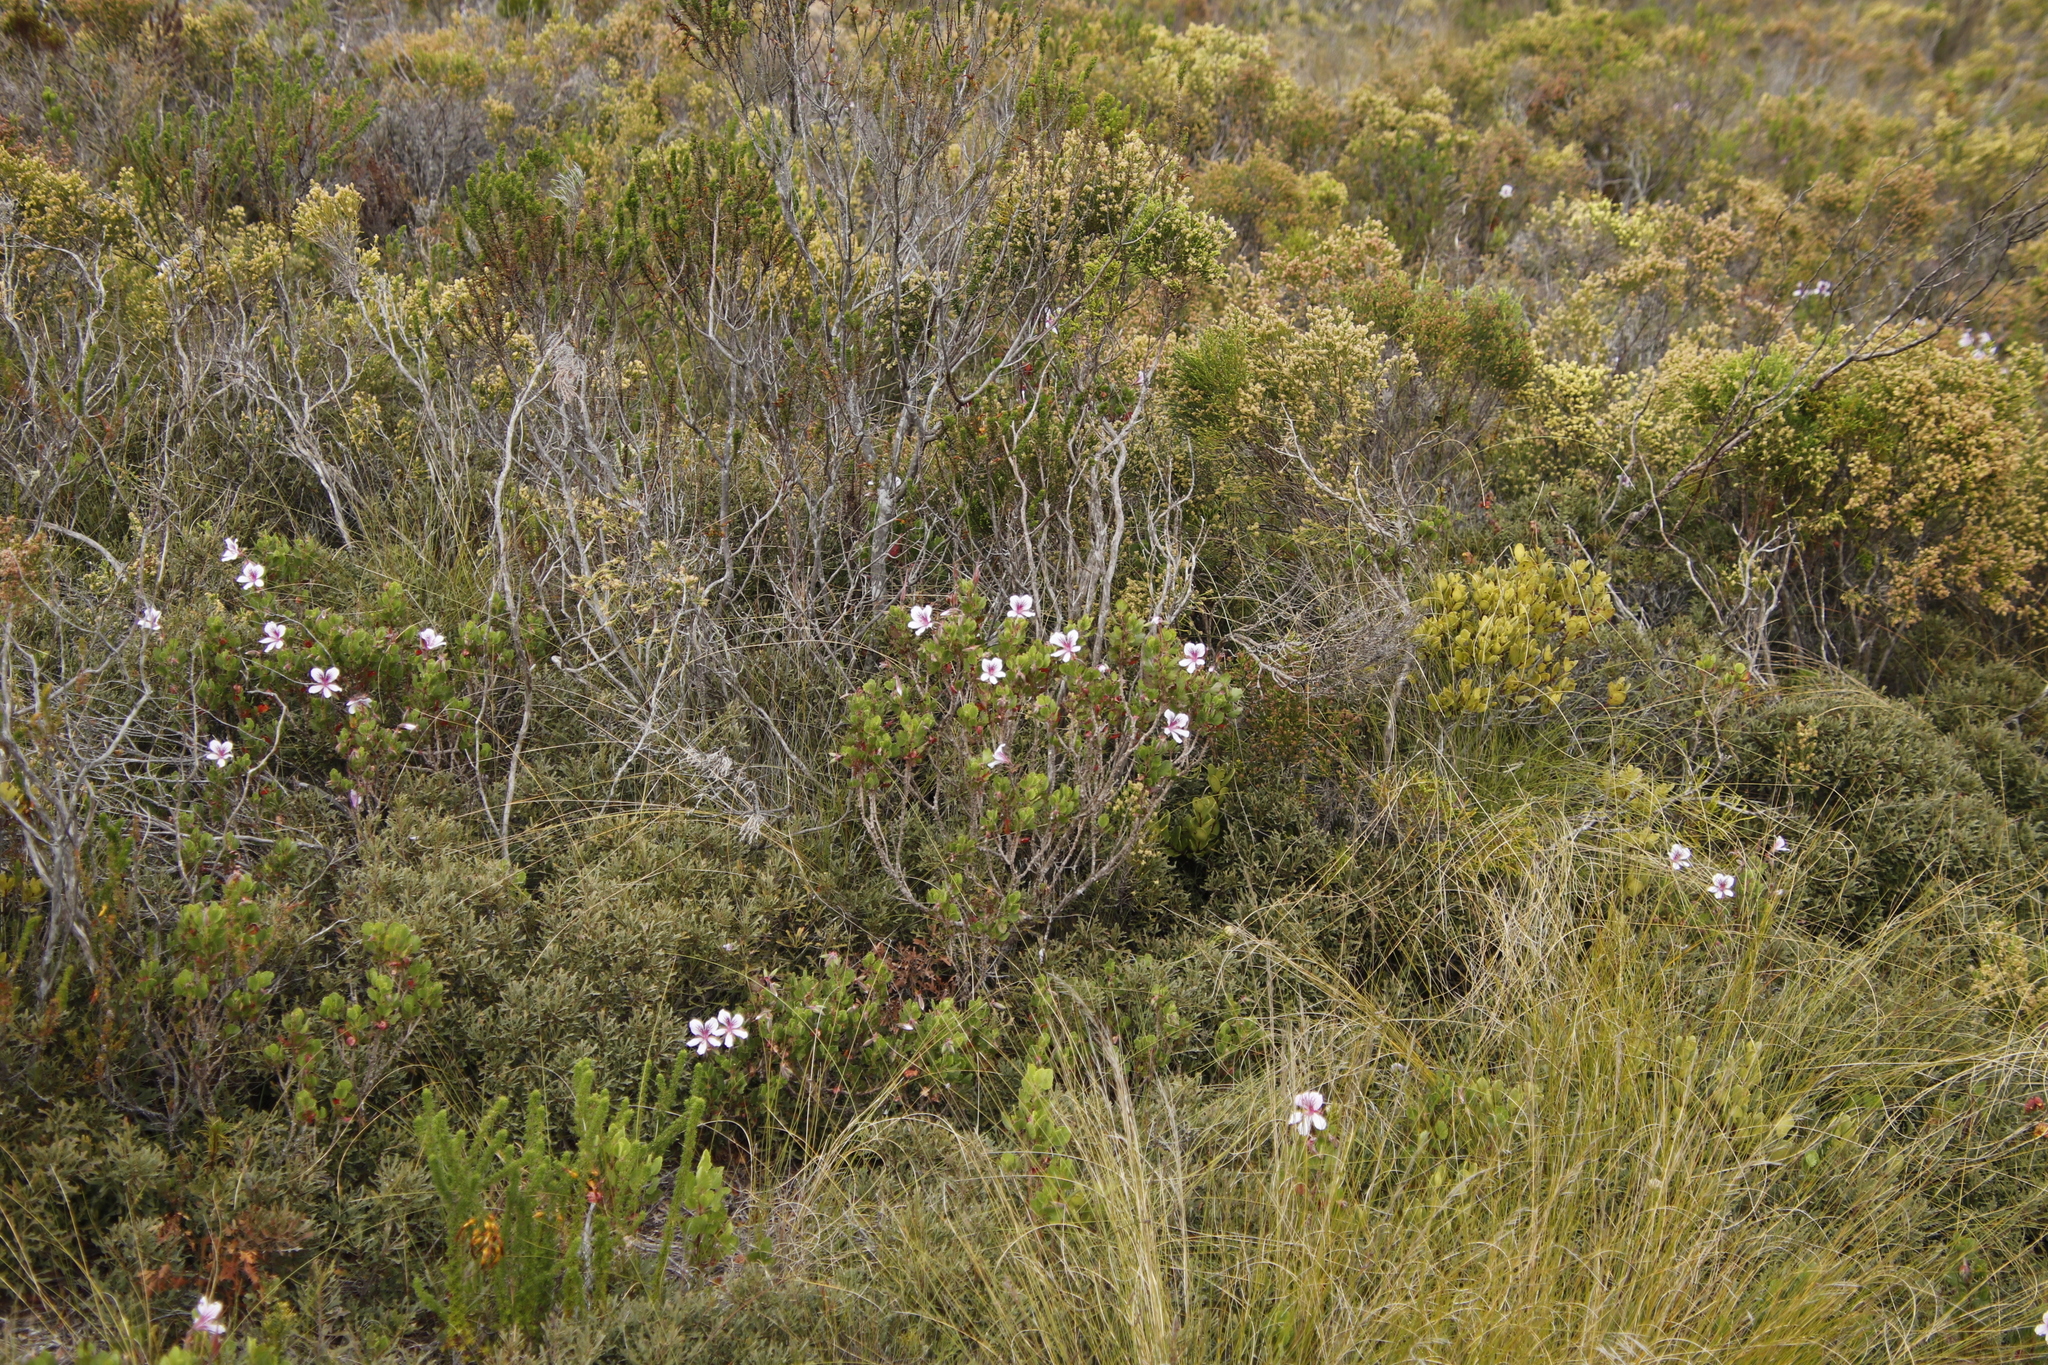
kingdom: Plantae
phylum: Tracheophyta
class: Magnoliopsida
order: Geraniales
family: Geraniaceae
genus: Pelargonium
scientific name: Pelargonium betulinum
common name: Birch-leaf pelargonium
